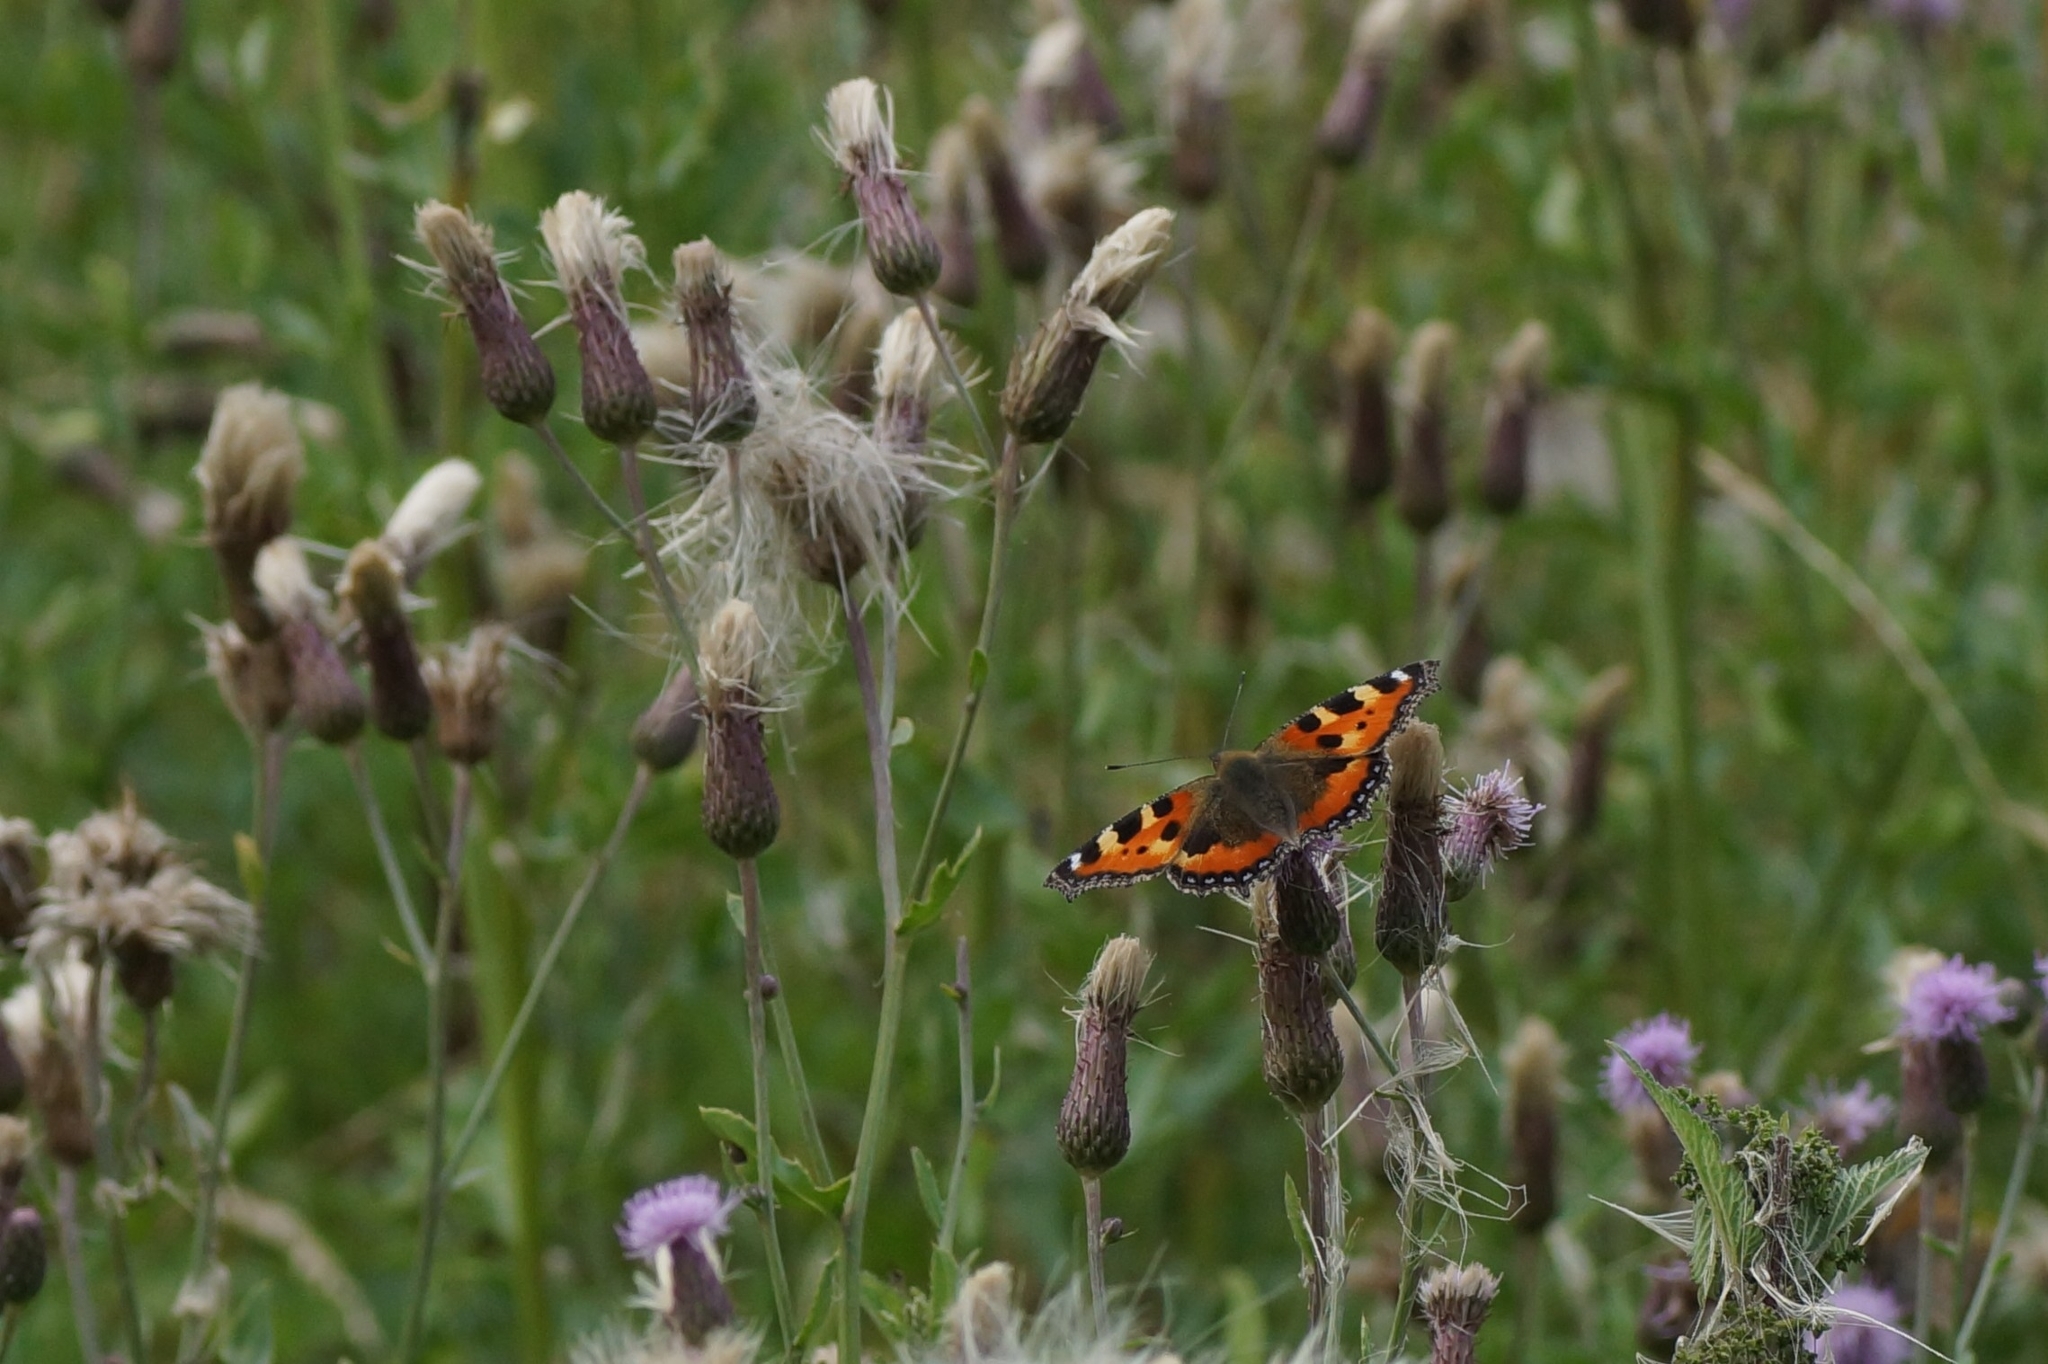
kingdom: Animalia
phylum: Arthropoda
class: Insecta
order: Lepidoptera
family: Nymphalidae
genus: Aglais
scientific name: Aglais urticae
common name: Small tortoiseshell
